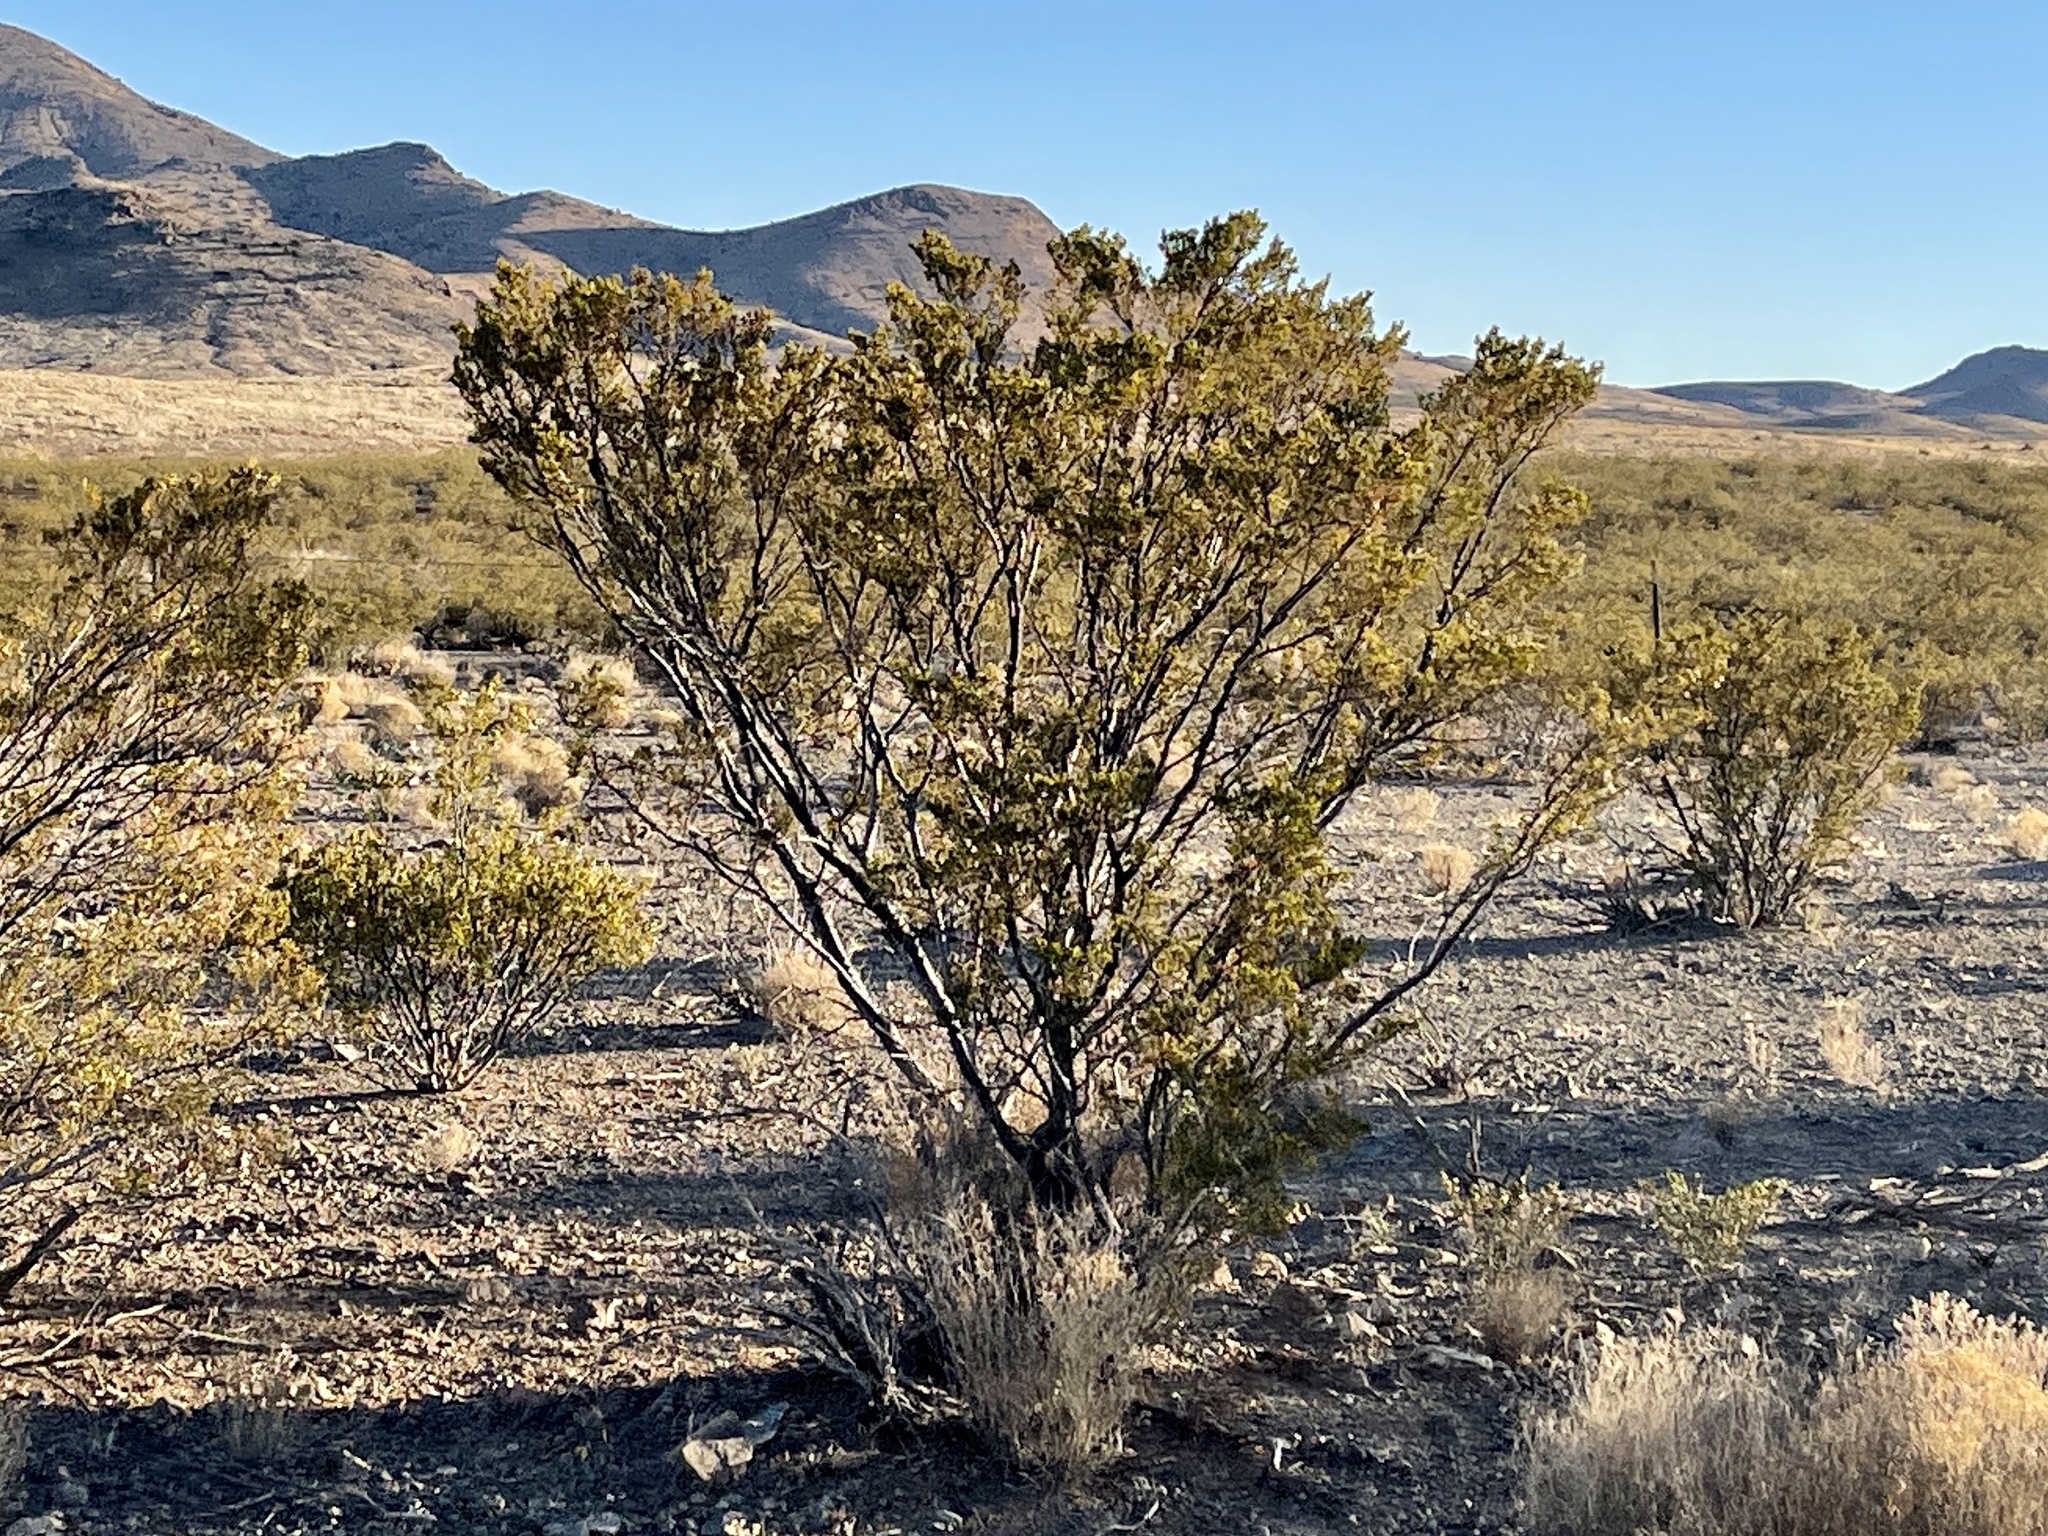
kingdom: Plantae
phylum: Tracheophyta
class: Magnoliopsida
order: Zygophyllales
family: Zygophyllaceae
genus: Larrea
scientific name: Larrea tridentata
